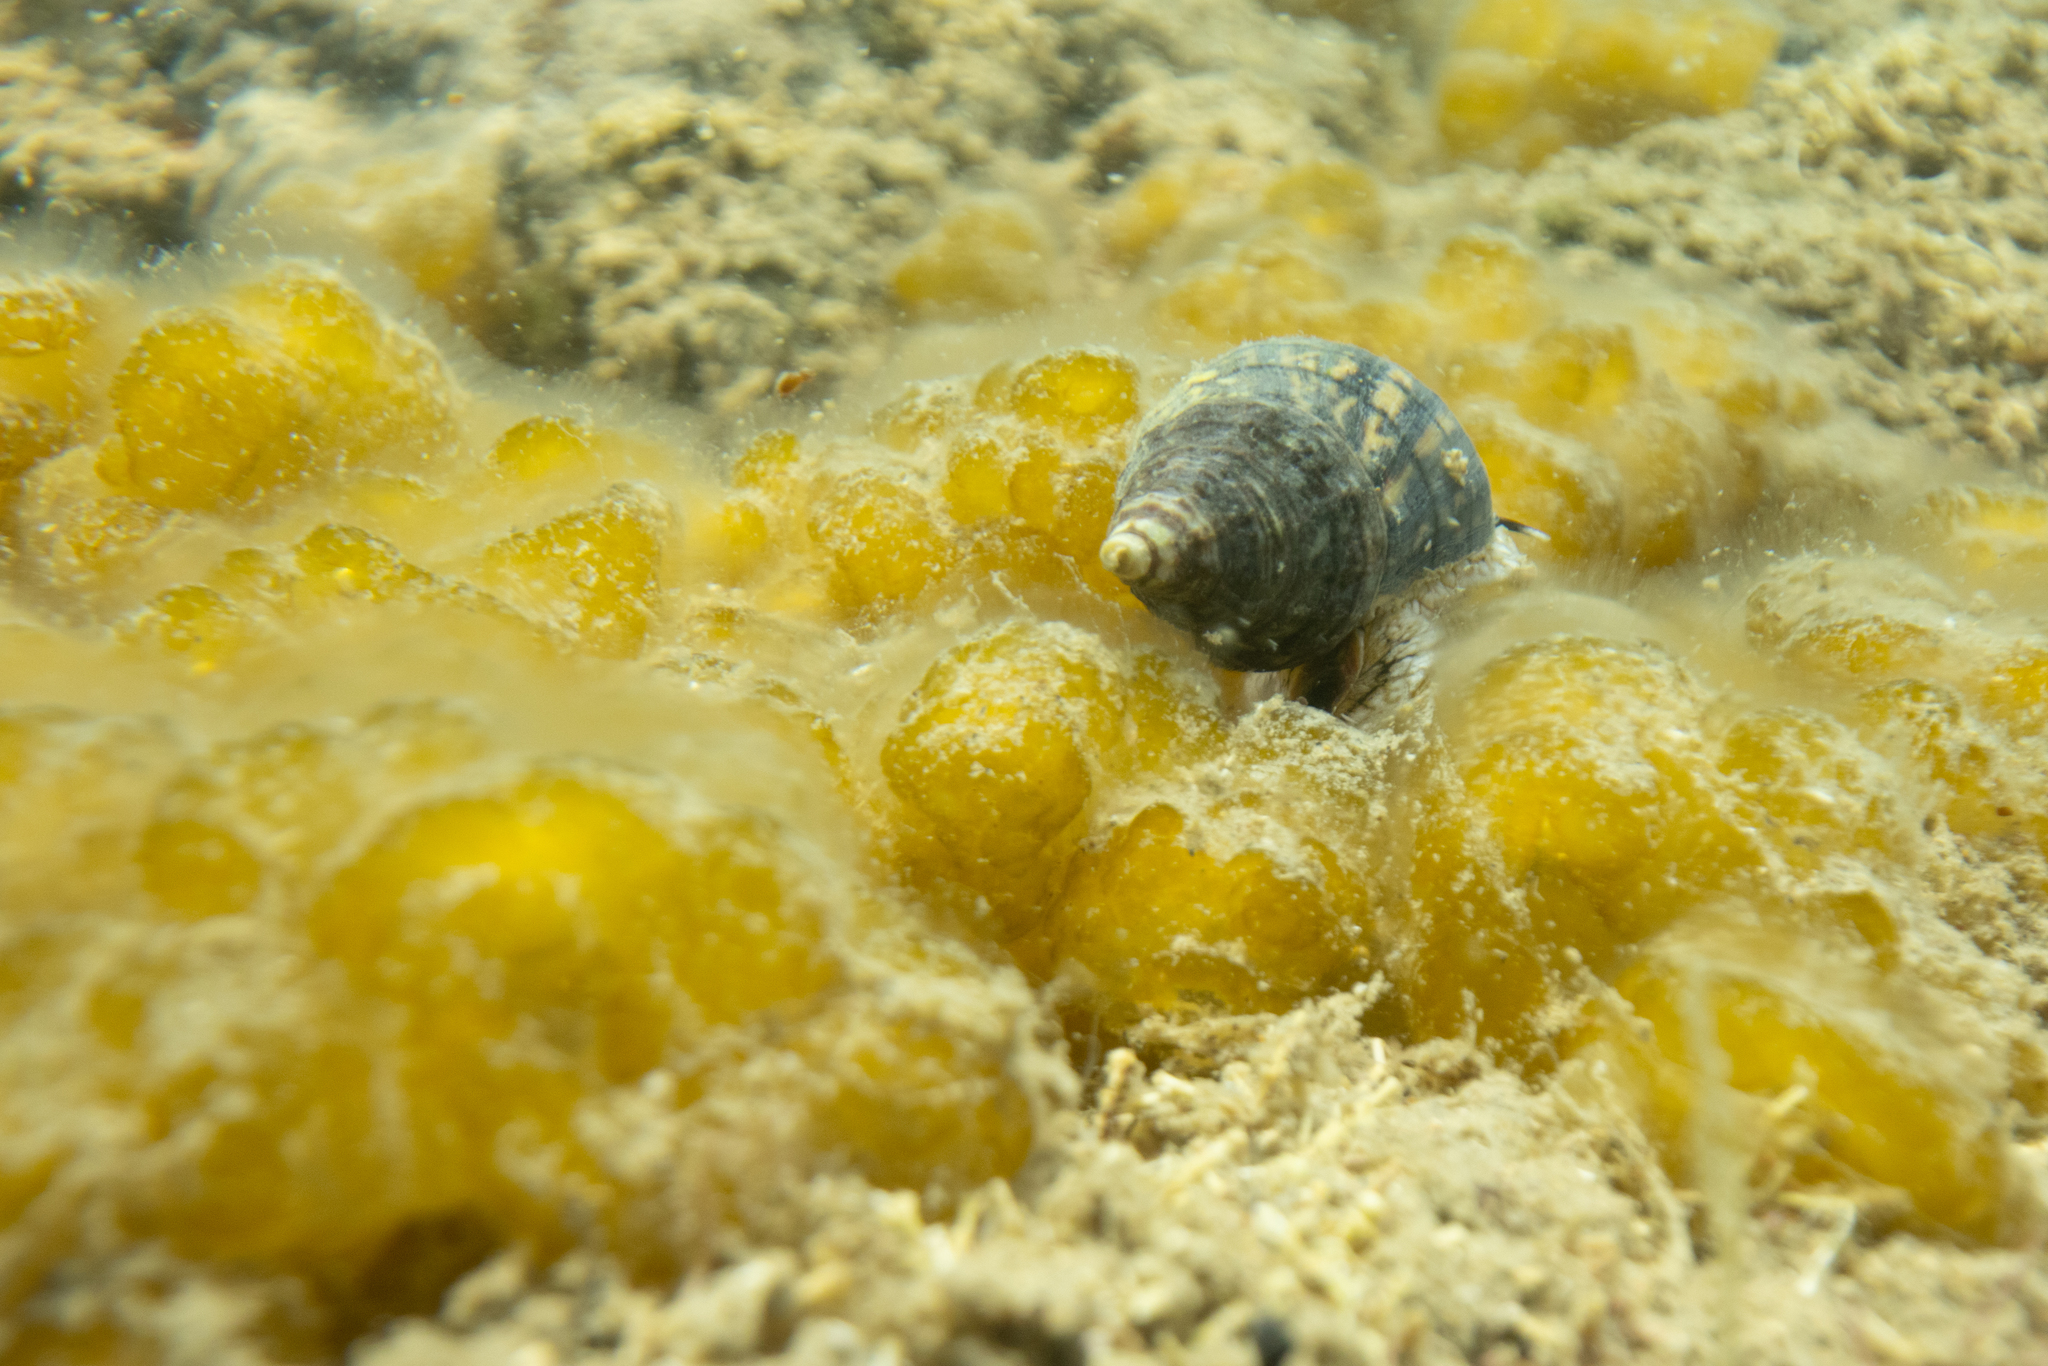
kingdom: Animalia
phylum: Mollusca
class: Gastropoda
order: Neogastropoda
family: Cominellidae
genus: Cominella
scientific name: Cominella virgata
